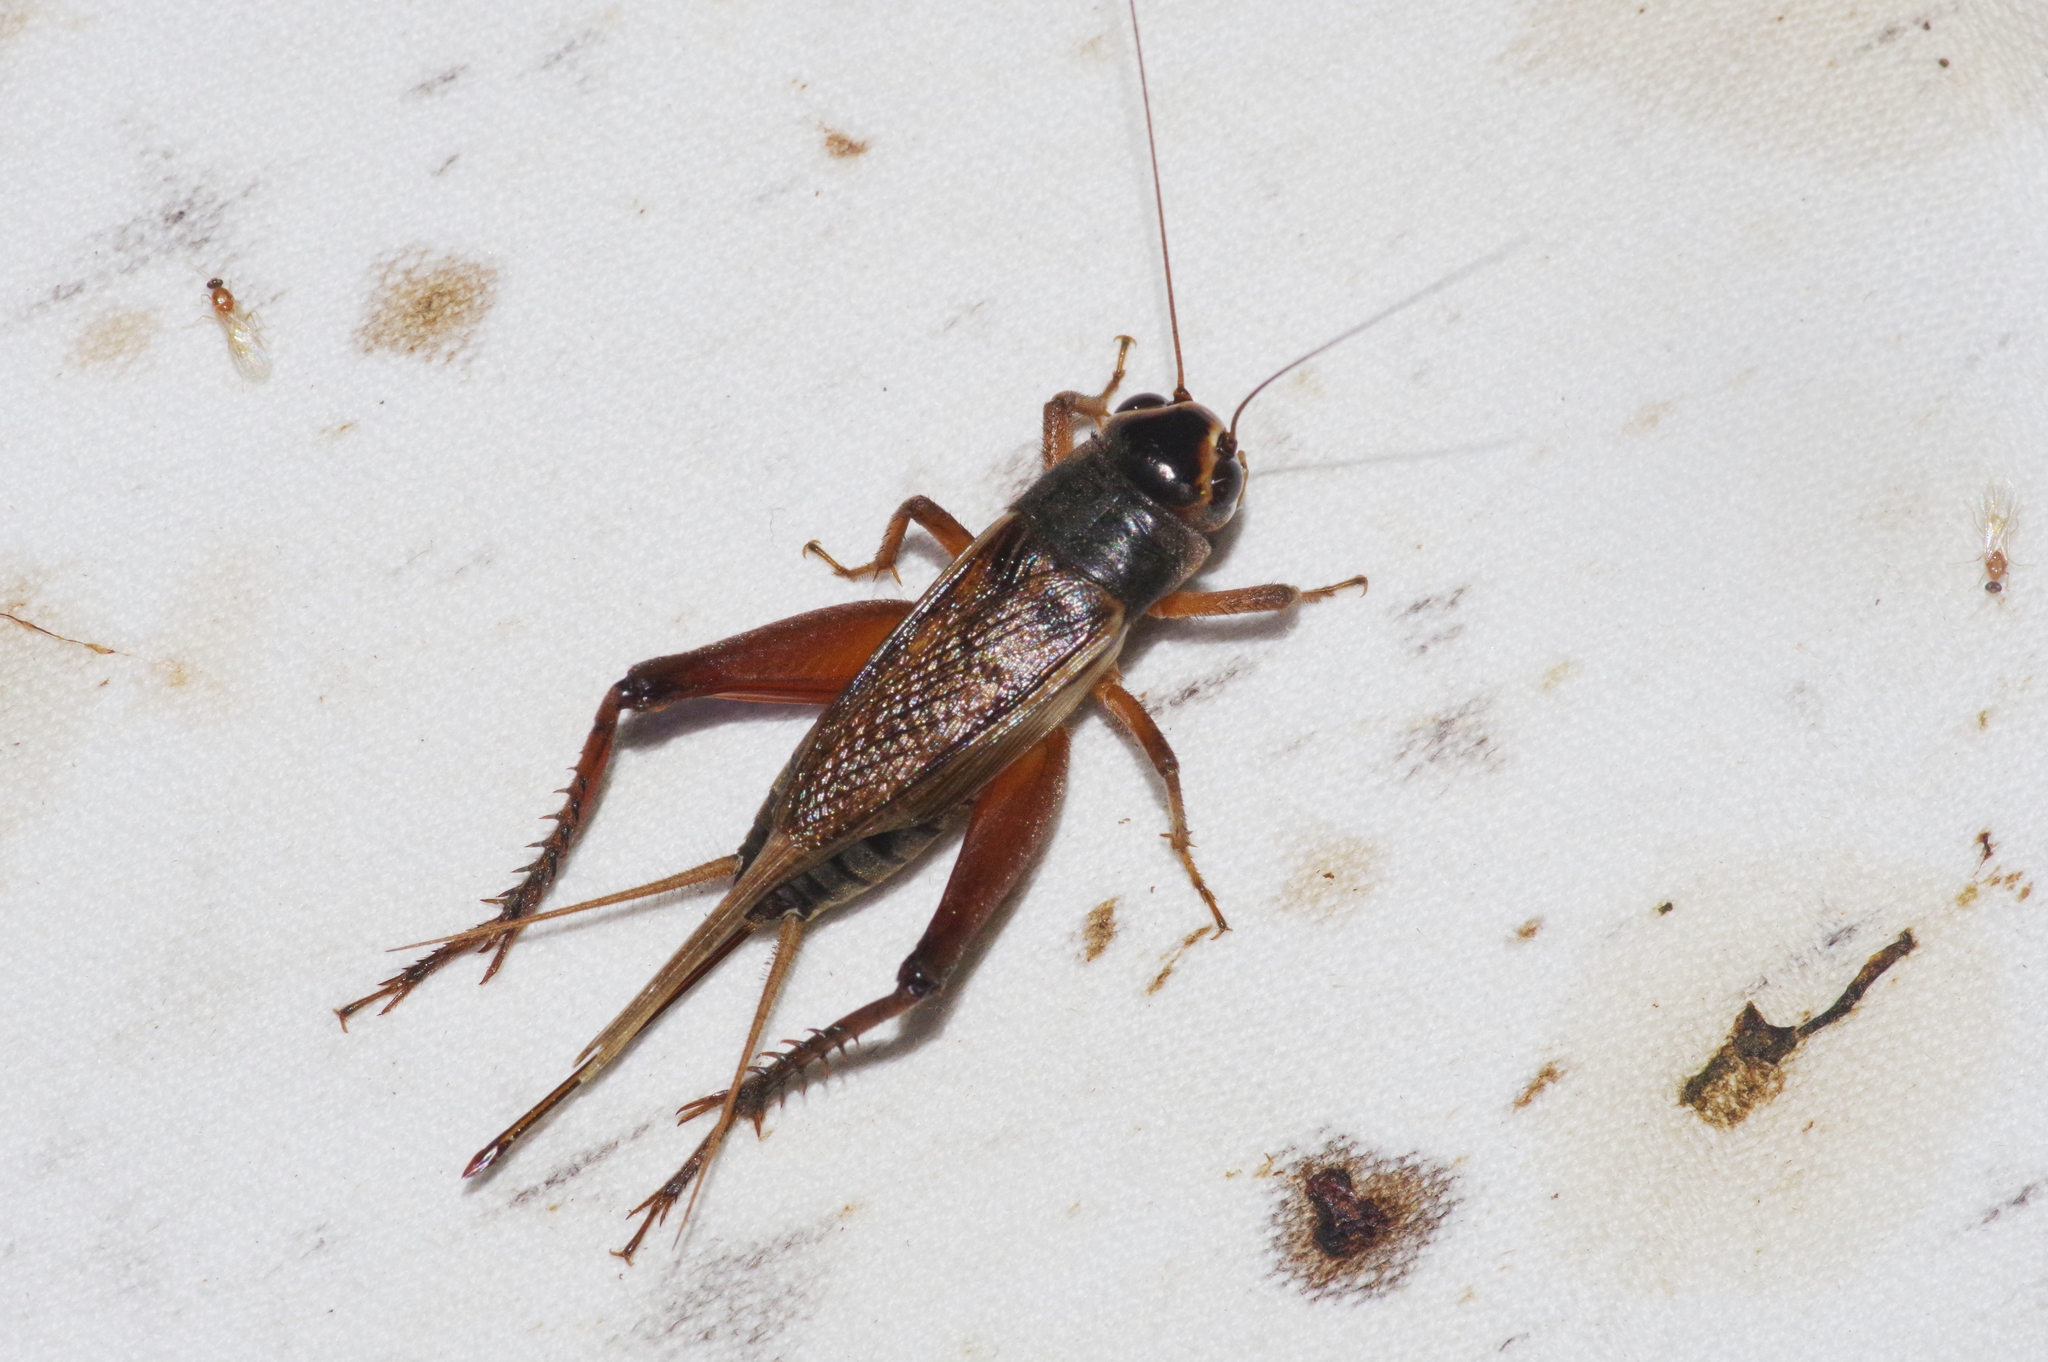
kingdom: Animalia
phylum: Arthropoda
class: Insecta
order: Orthoptera
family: Gryllidae
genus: Teleogryllus
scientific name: Teleogryllus occipitalis
